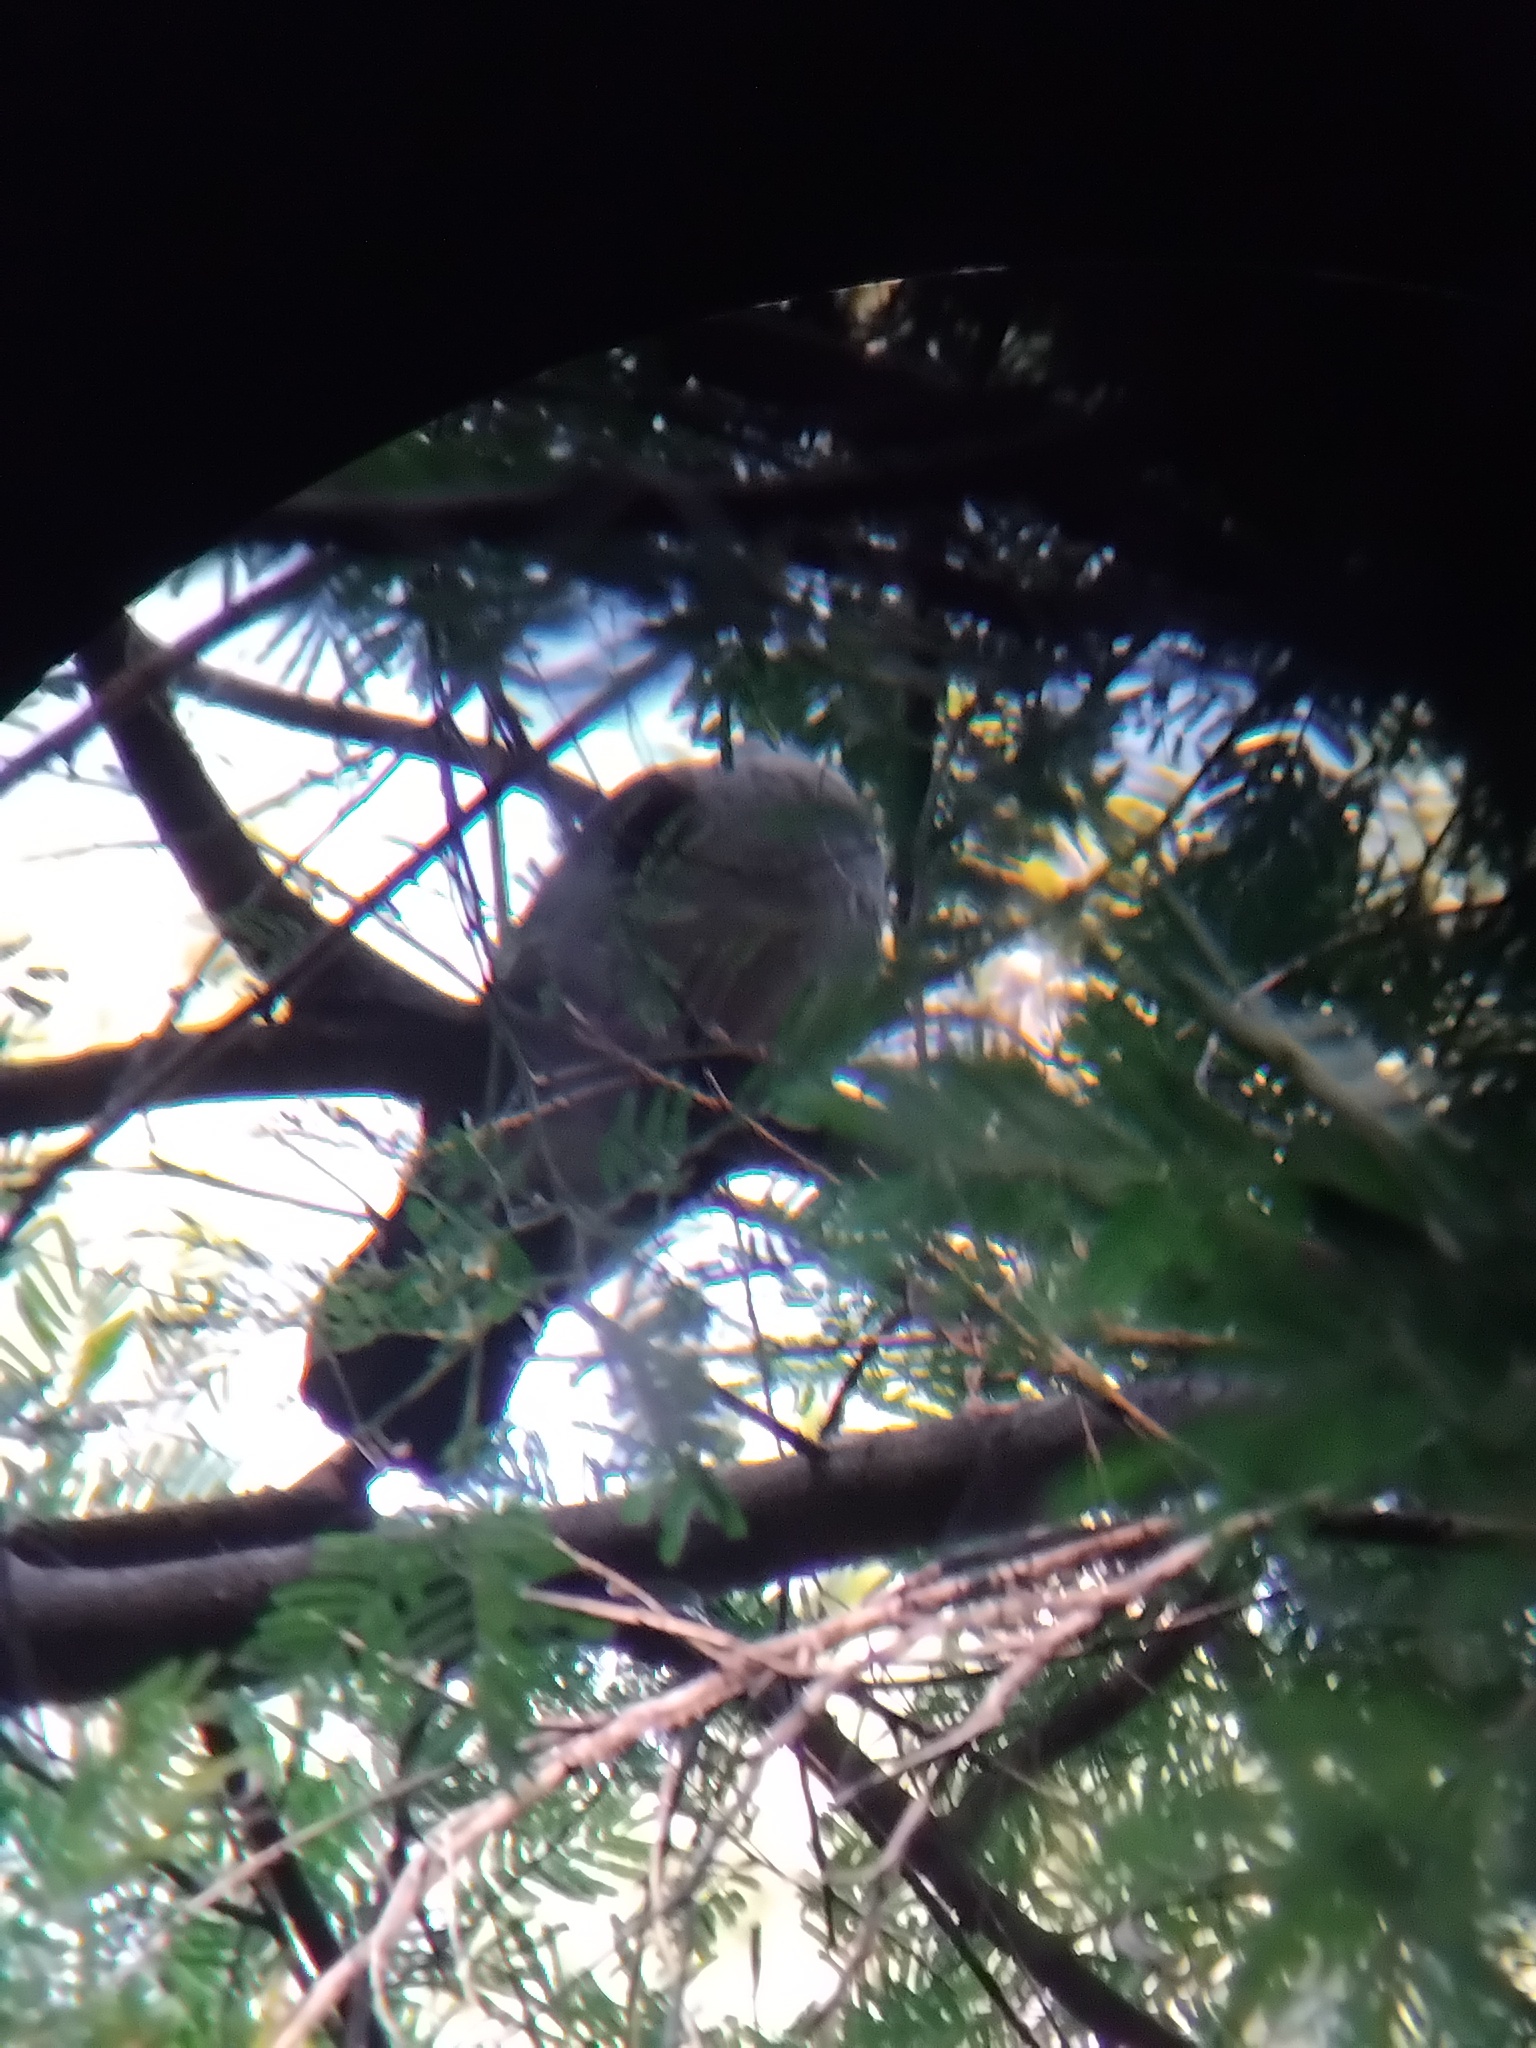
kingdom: Animalia
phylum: Chordata
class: Aves
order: Columbiformes
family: Columbidae
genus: Columba
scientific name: Columba leucomela
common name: White-headed pigeon
